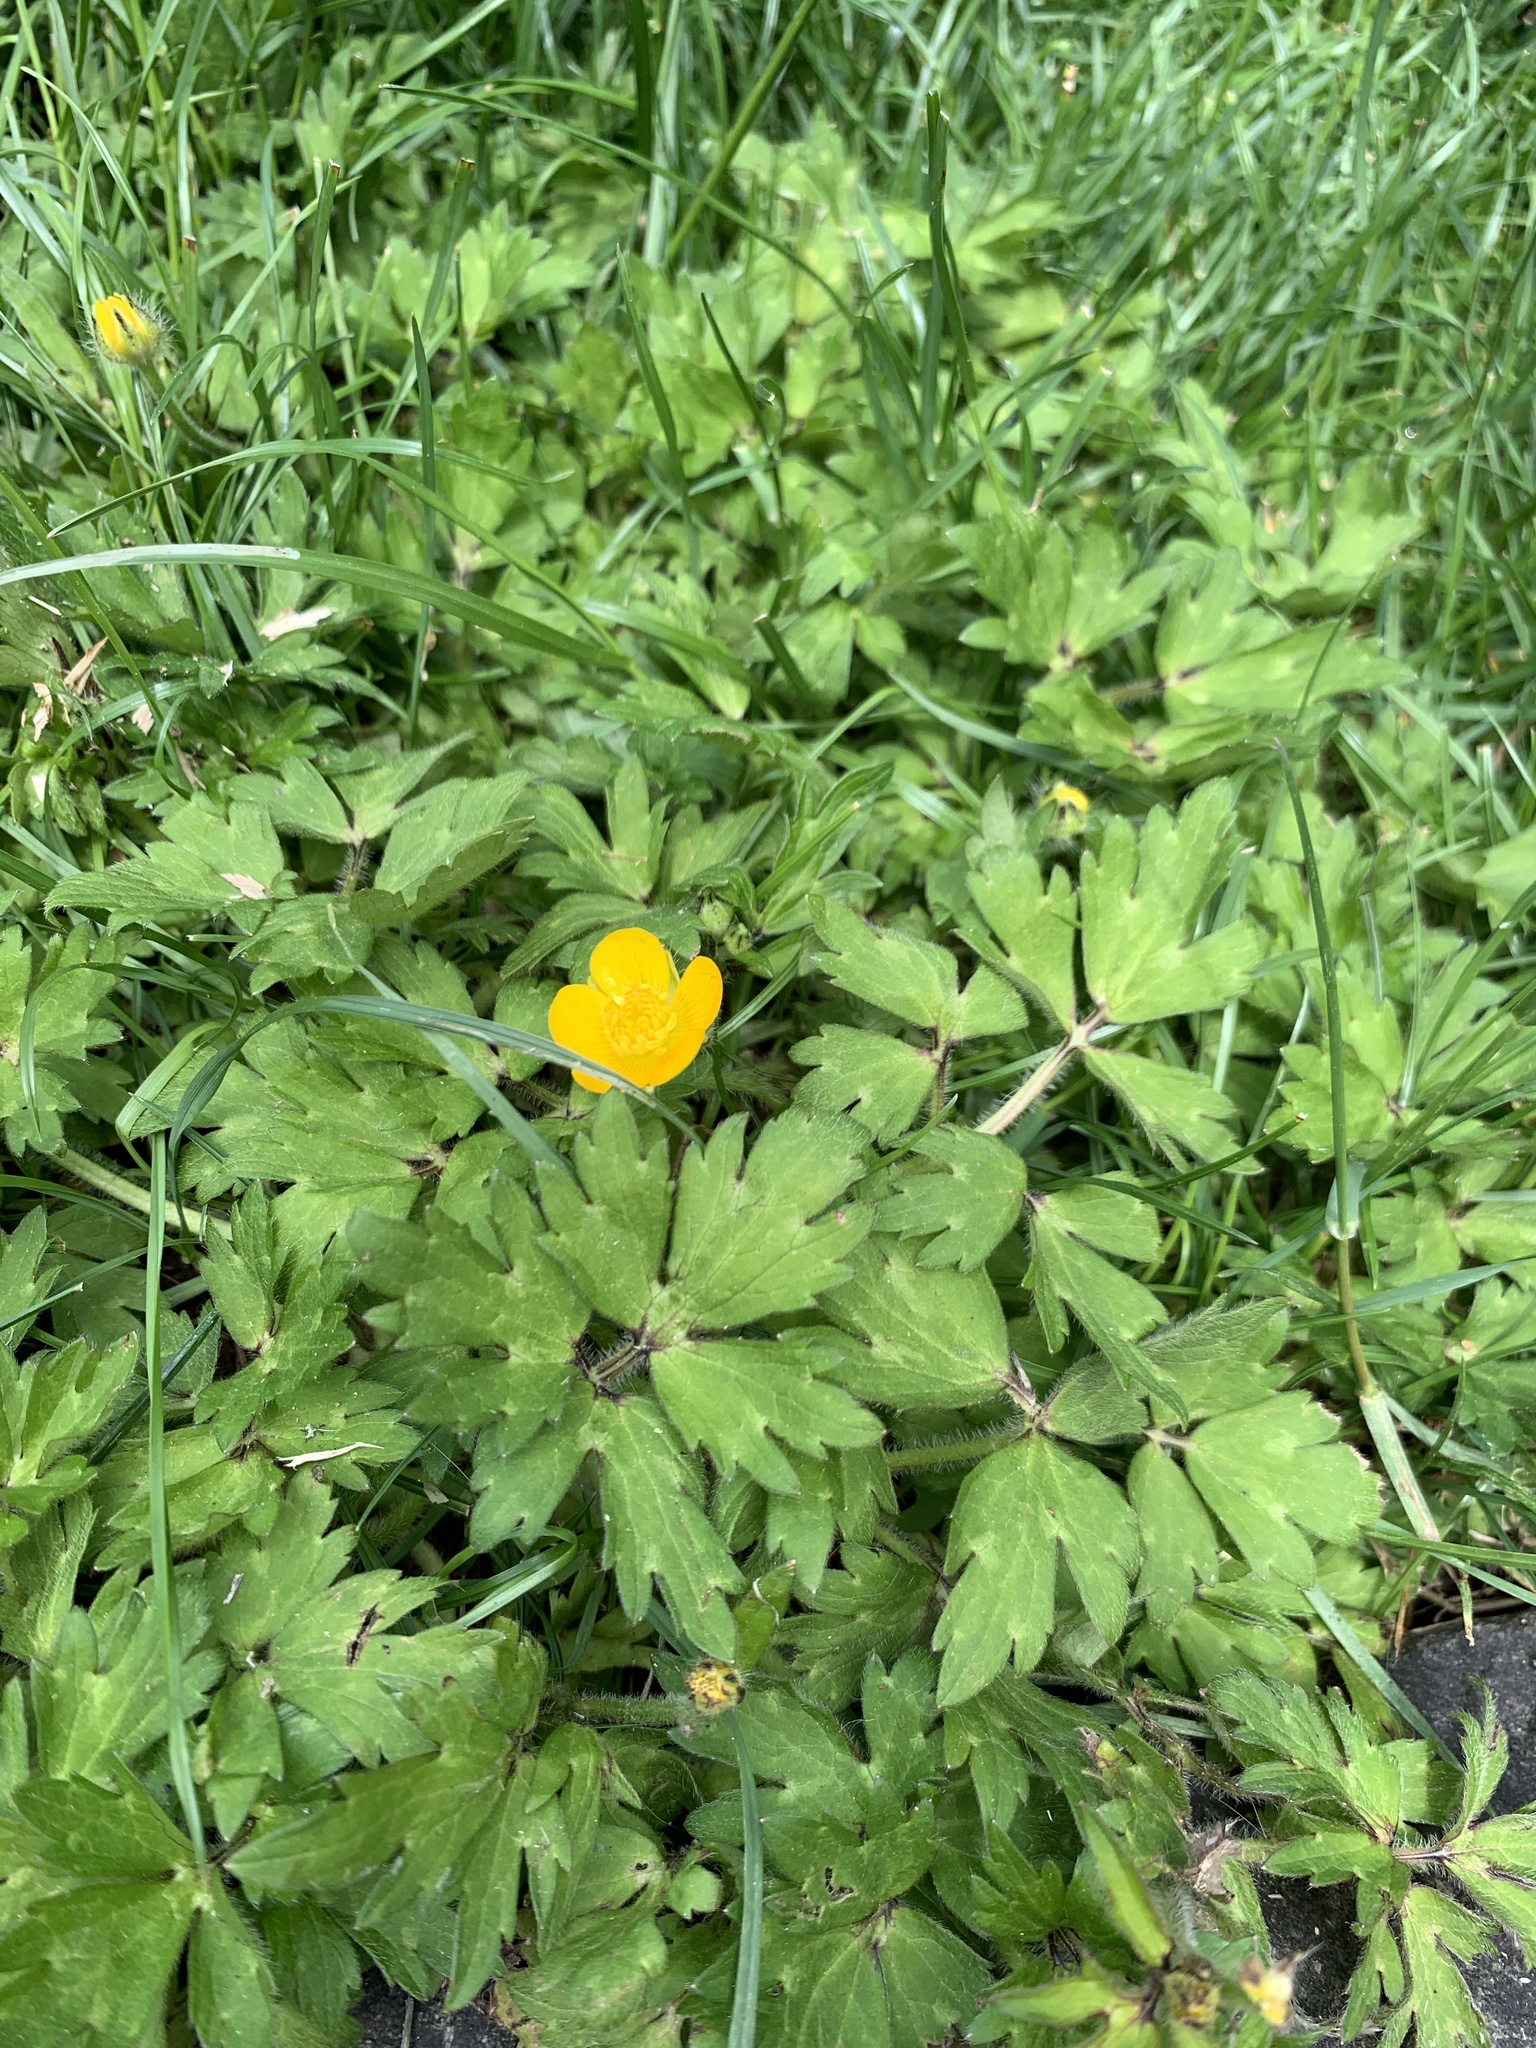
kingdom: Plantae
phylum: Tracheophyta
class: Magnoliopsida
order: Ranunculales
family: Ranunculaceae
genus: Ranunculus
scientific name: Ranunculus repens
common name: Creeping buttercup
